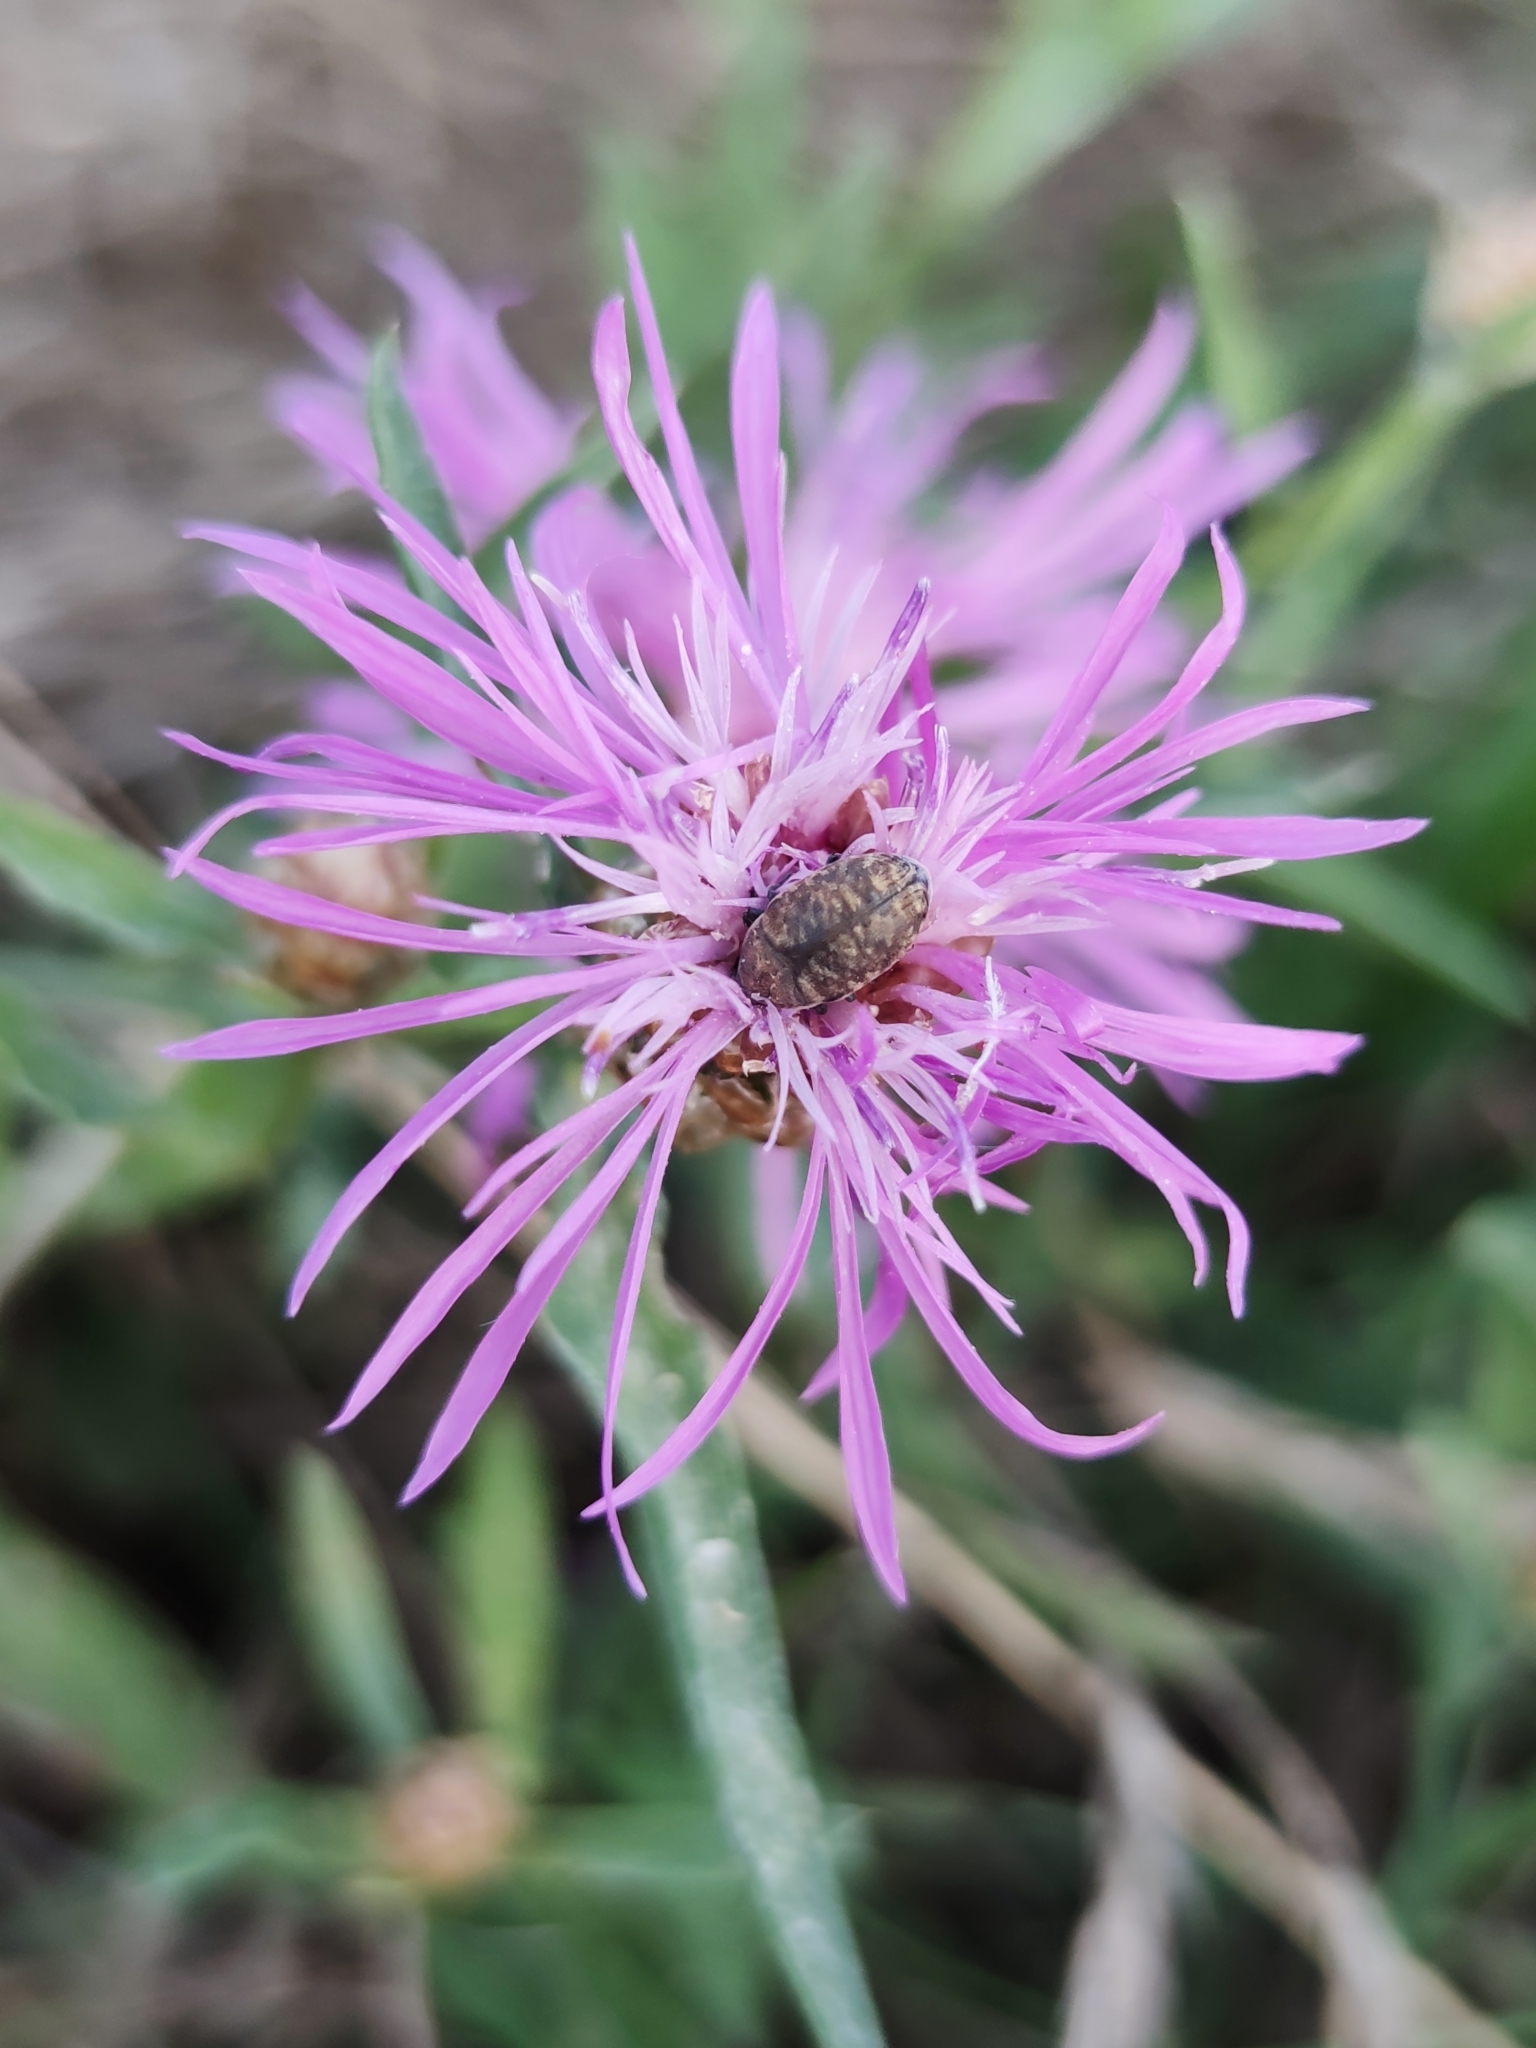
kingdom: Plantae
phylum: Tracheophyta
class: Magnoliopsida
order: Asterales
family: Asteraceae
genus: Centaurea
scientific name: Centaurea jacea
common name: Brown knapweed
